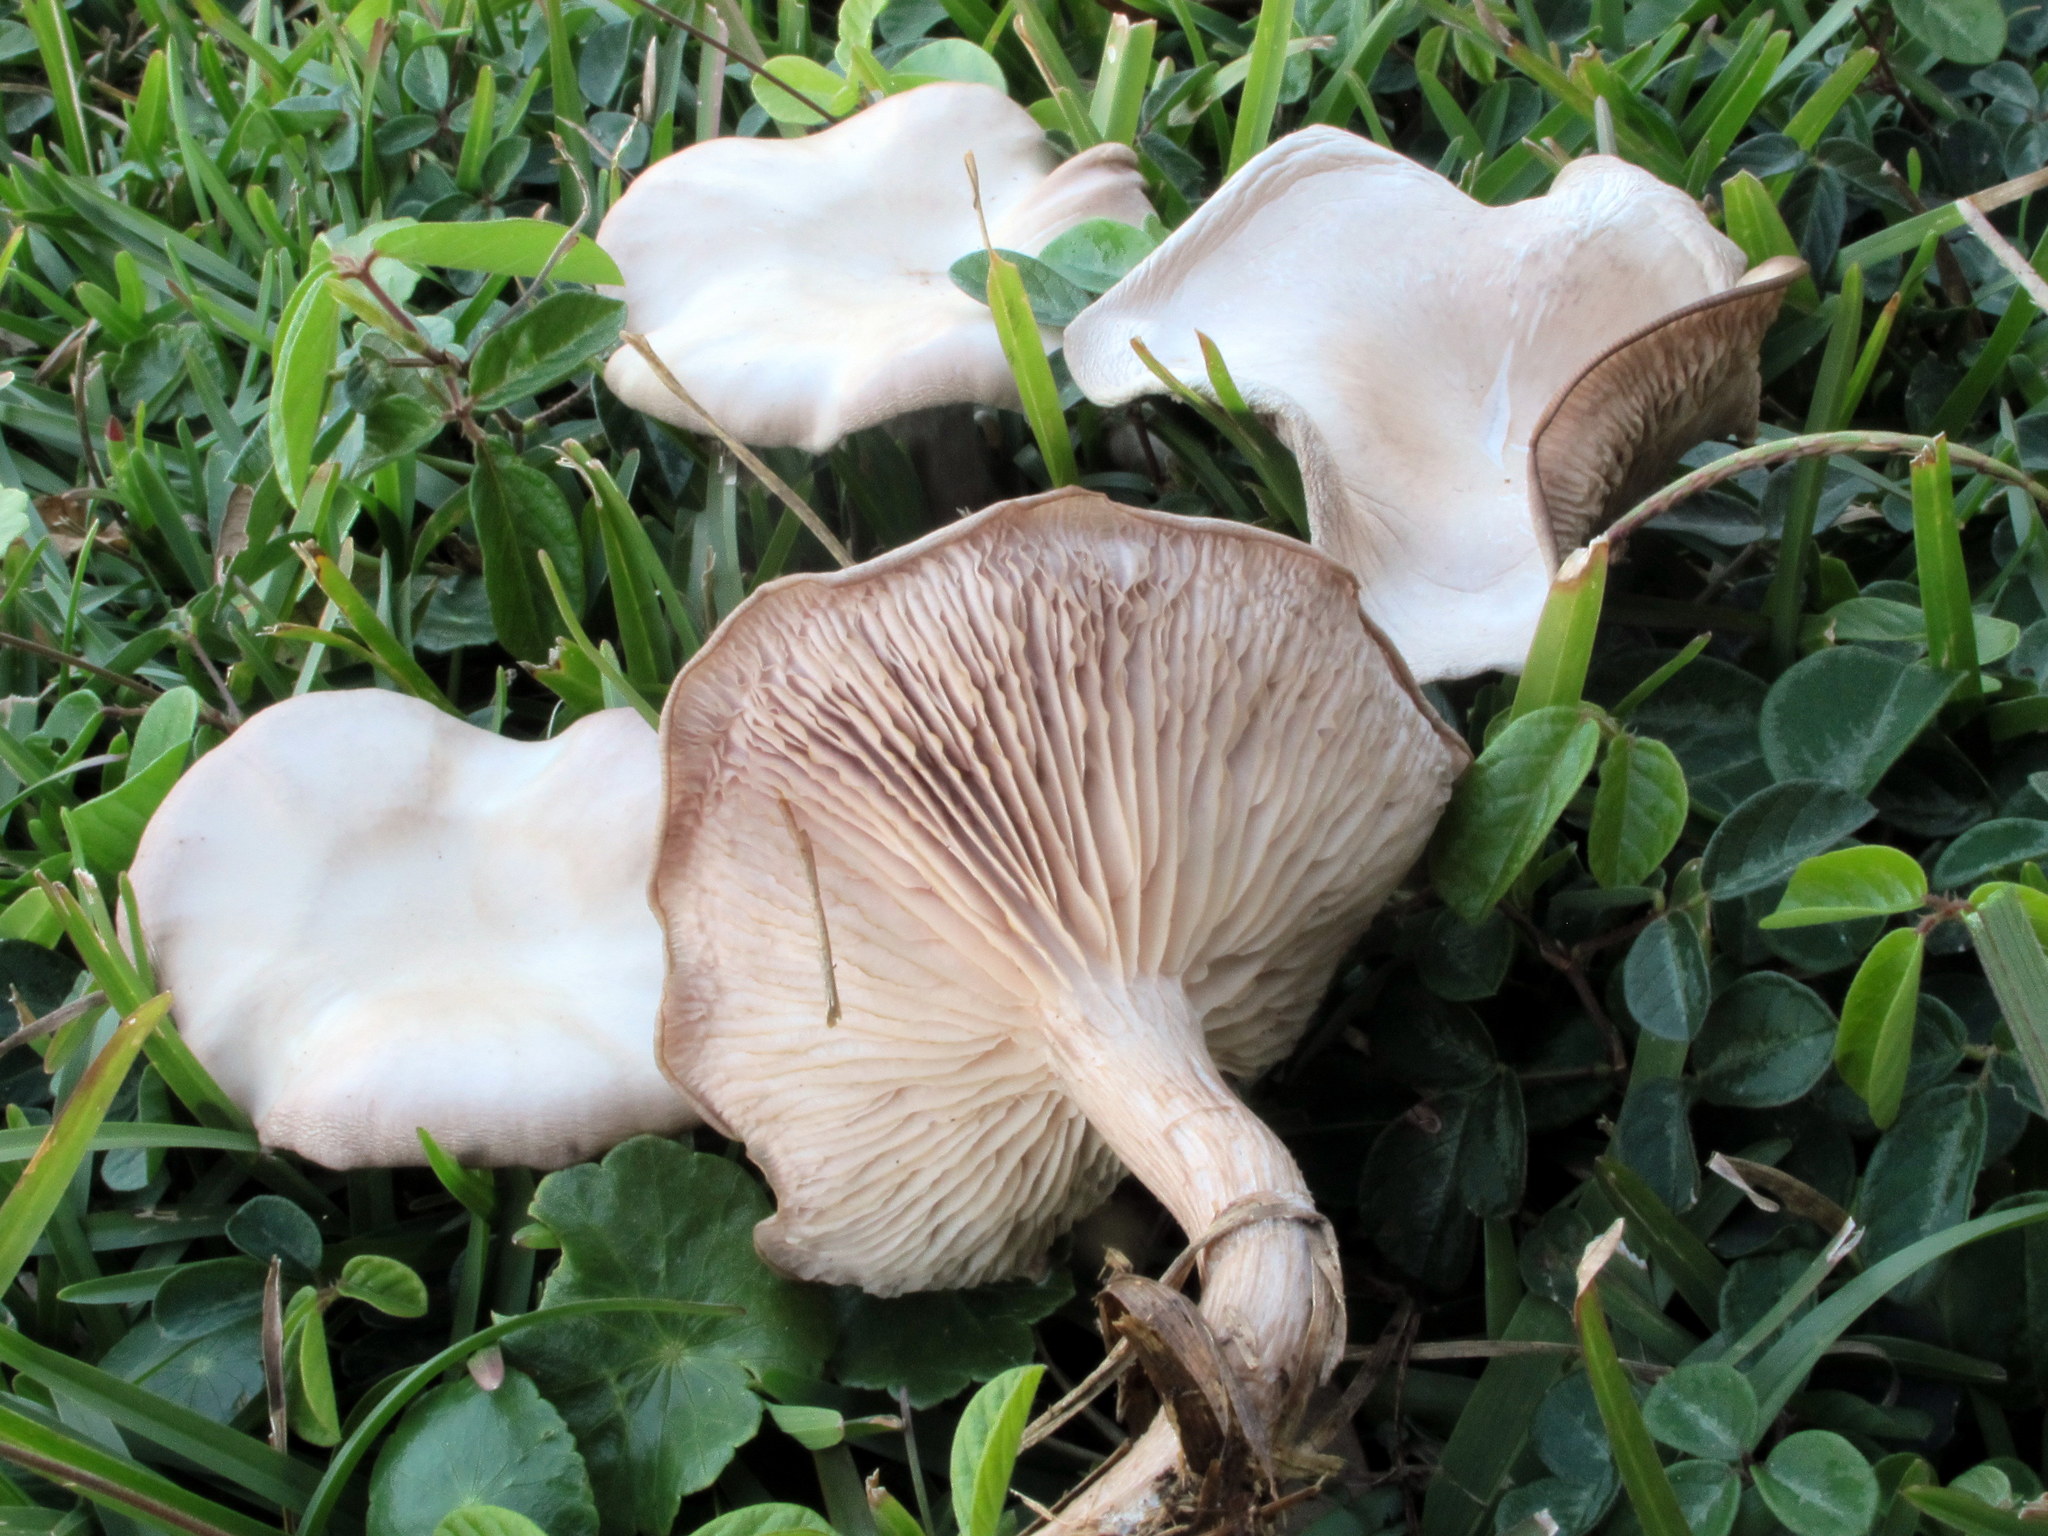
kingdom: Fungi
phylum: Basidiomycota
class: Agaricomycetes
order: Agaricales
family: Tricholomataceae
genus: Lepista
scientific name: Lepista tarda
